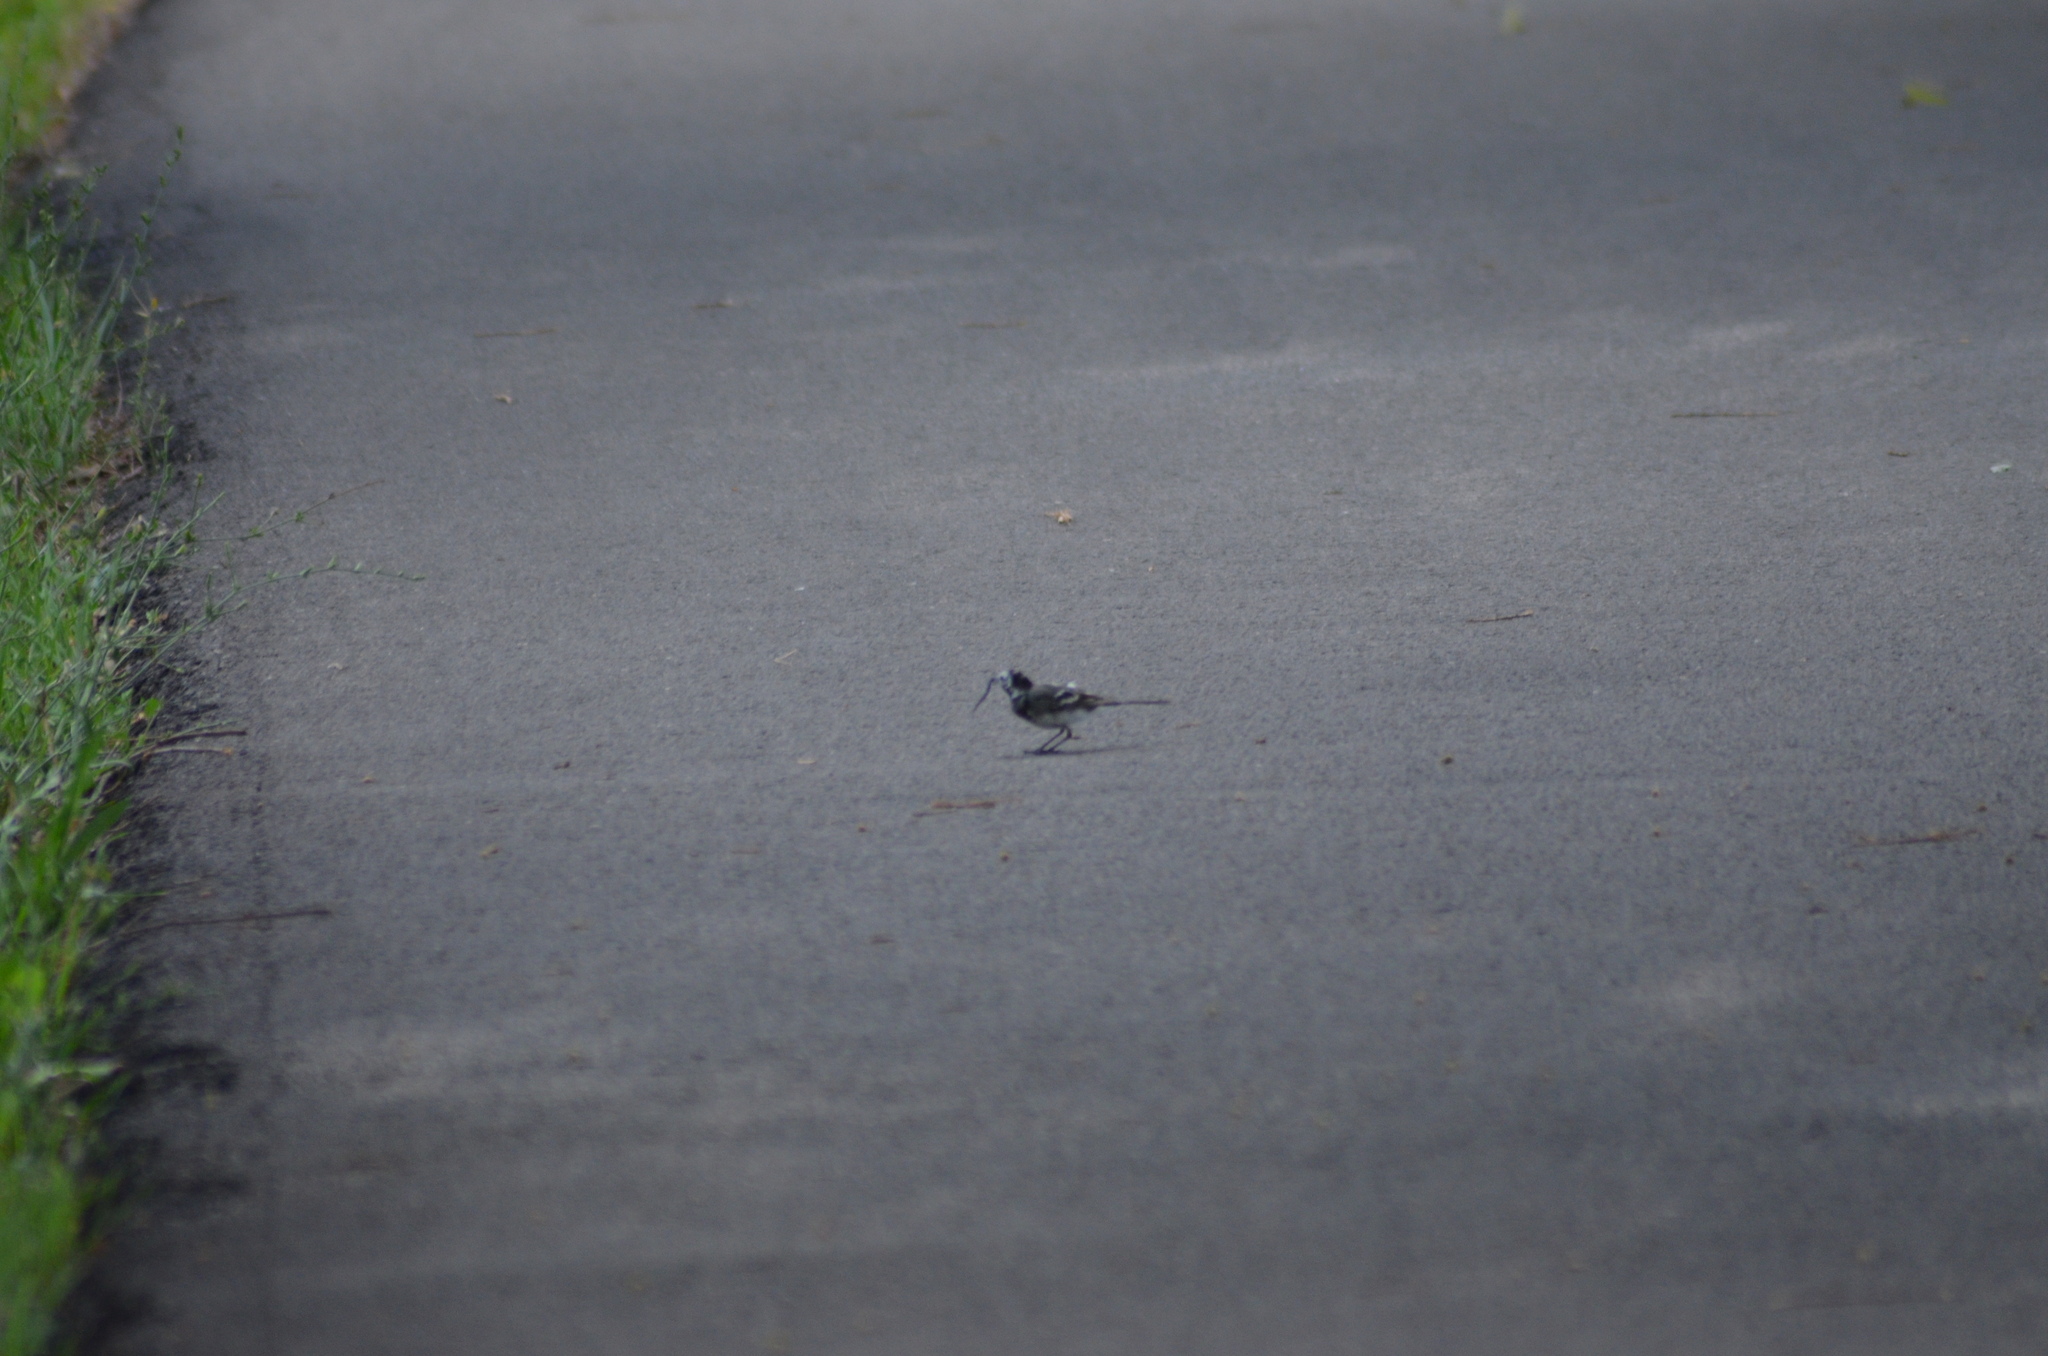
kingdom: Animalia
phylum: Chordata
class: Aves
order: Passeriformes
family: Motacillidae
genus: Motacilla
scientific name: Motacilla alba
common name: White wagtail
